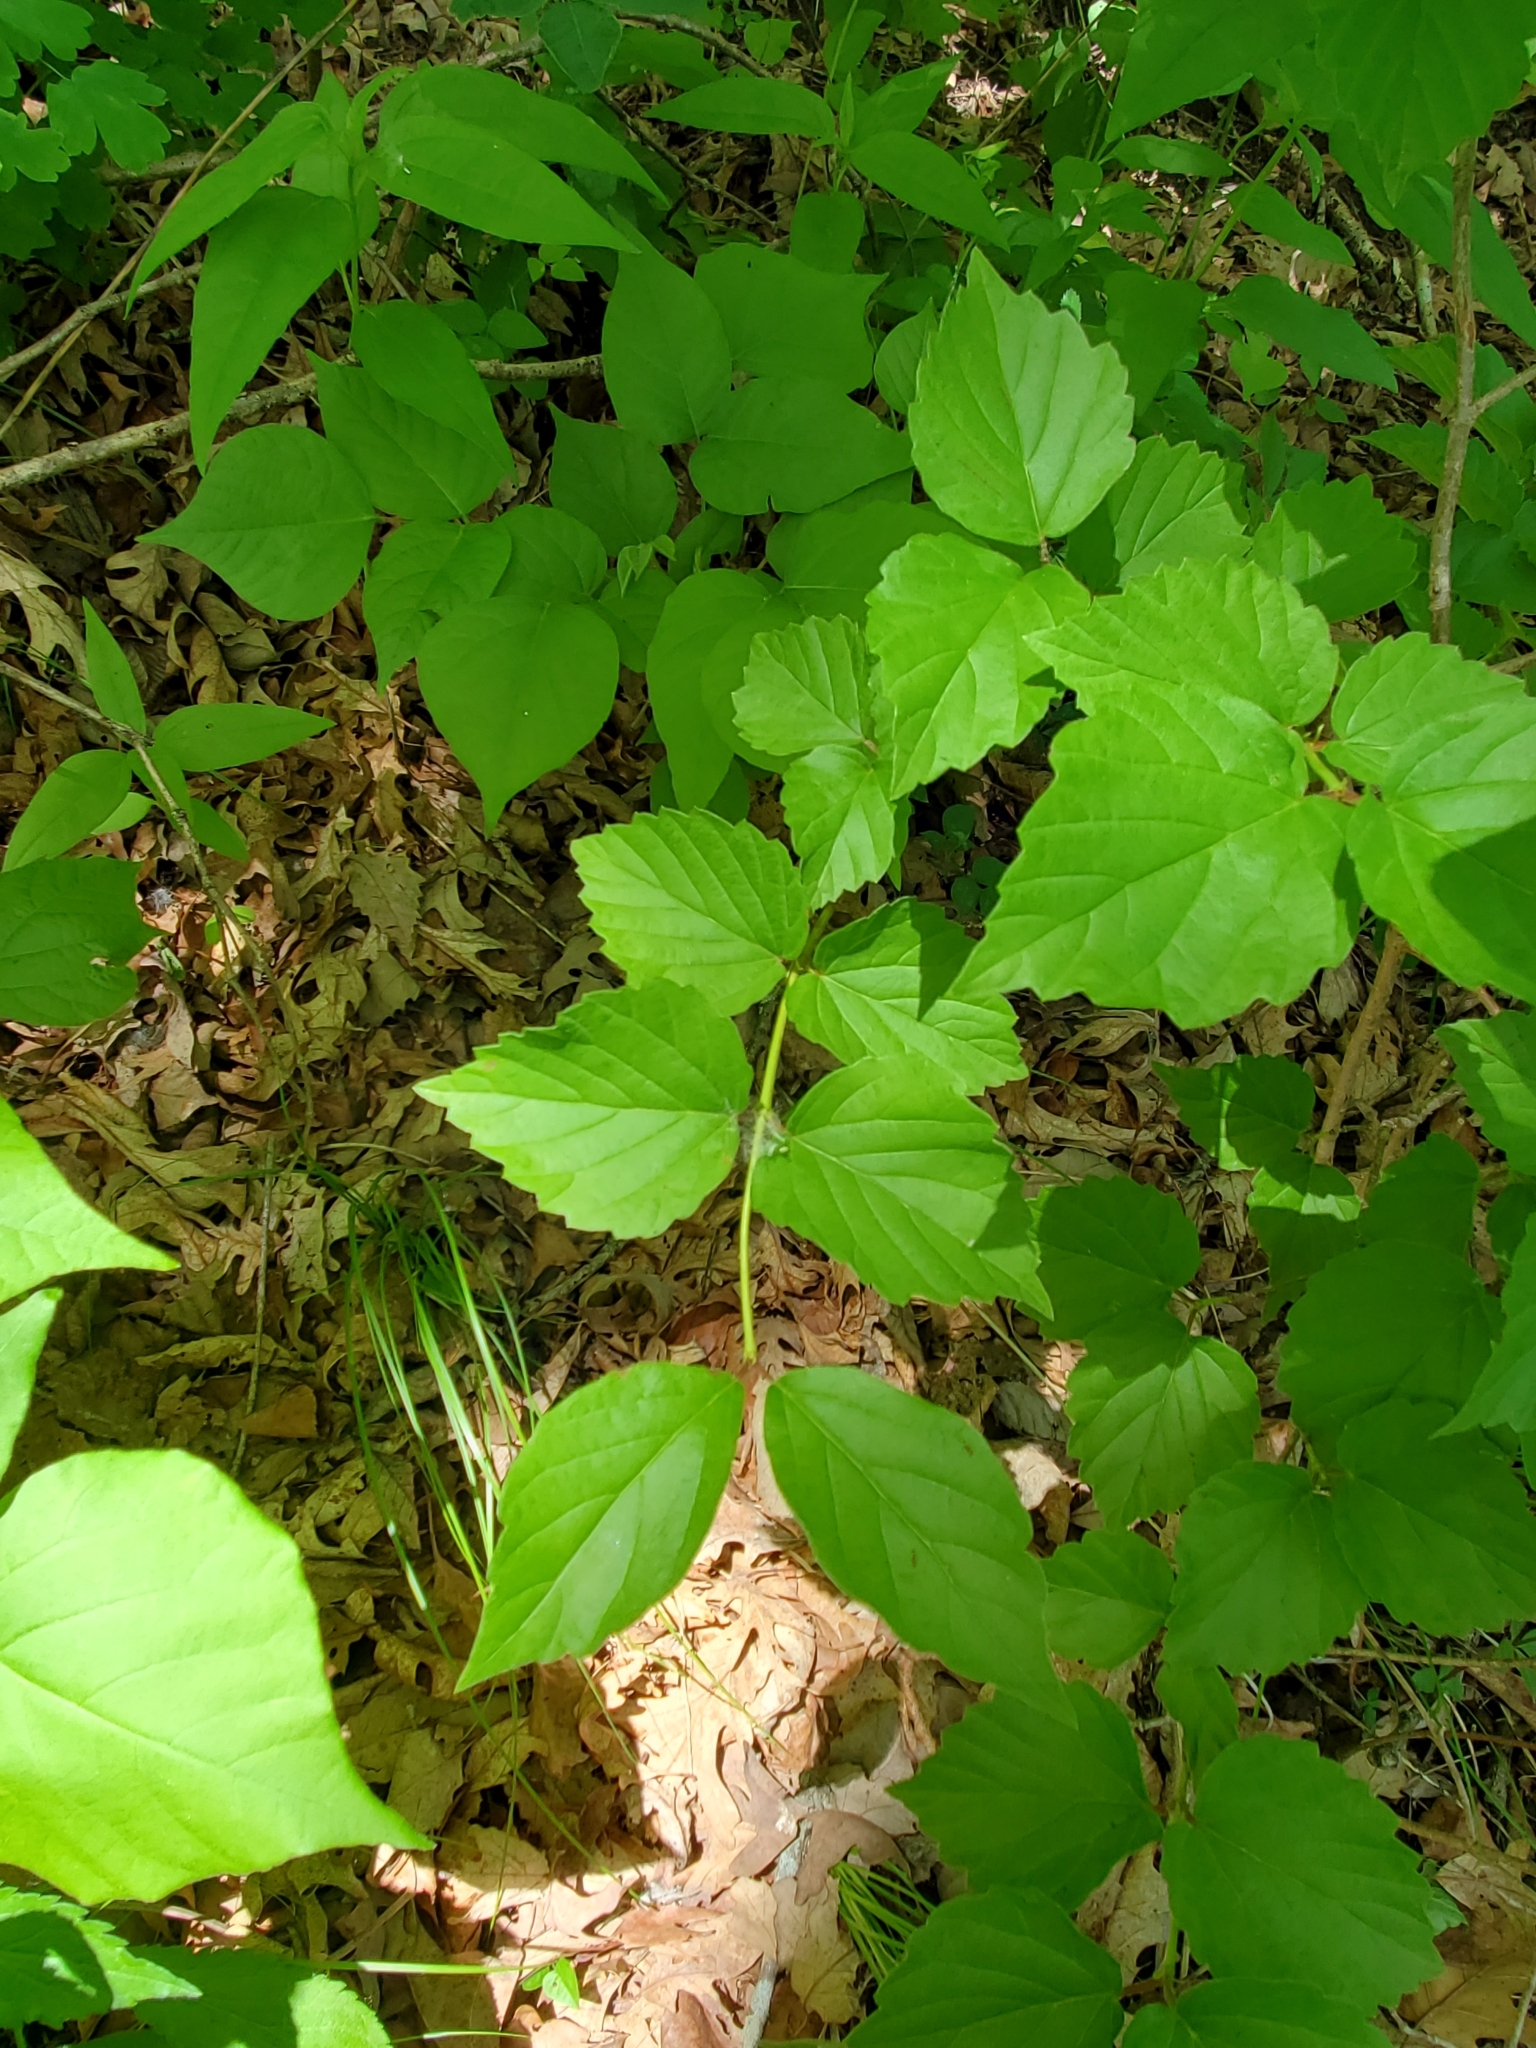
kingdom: Plantae
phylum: Tracheophyta
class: Magnoliopsida
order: Dipsacales
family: Viburnaceae
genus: Viburnum
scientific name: Viburnum rafinesqueanum
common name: Downy arrow-wood
